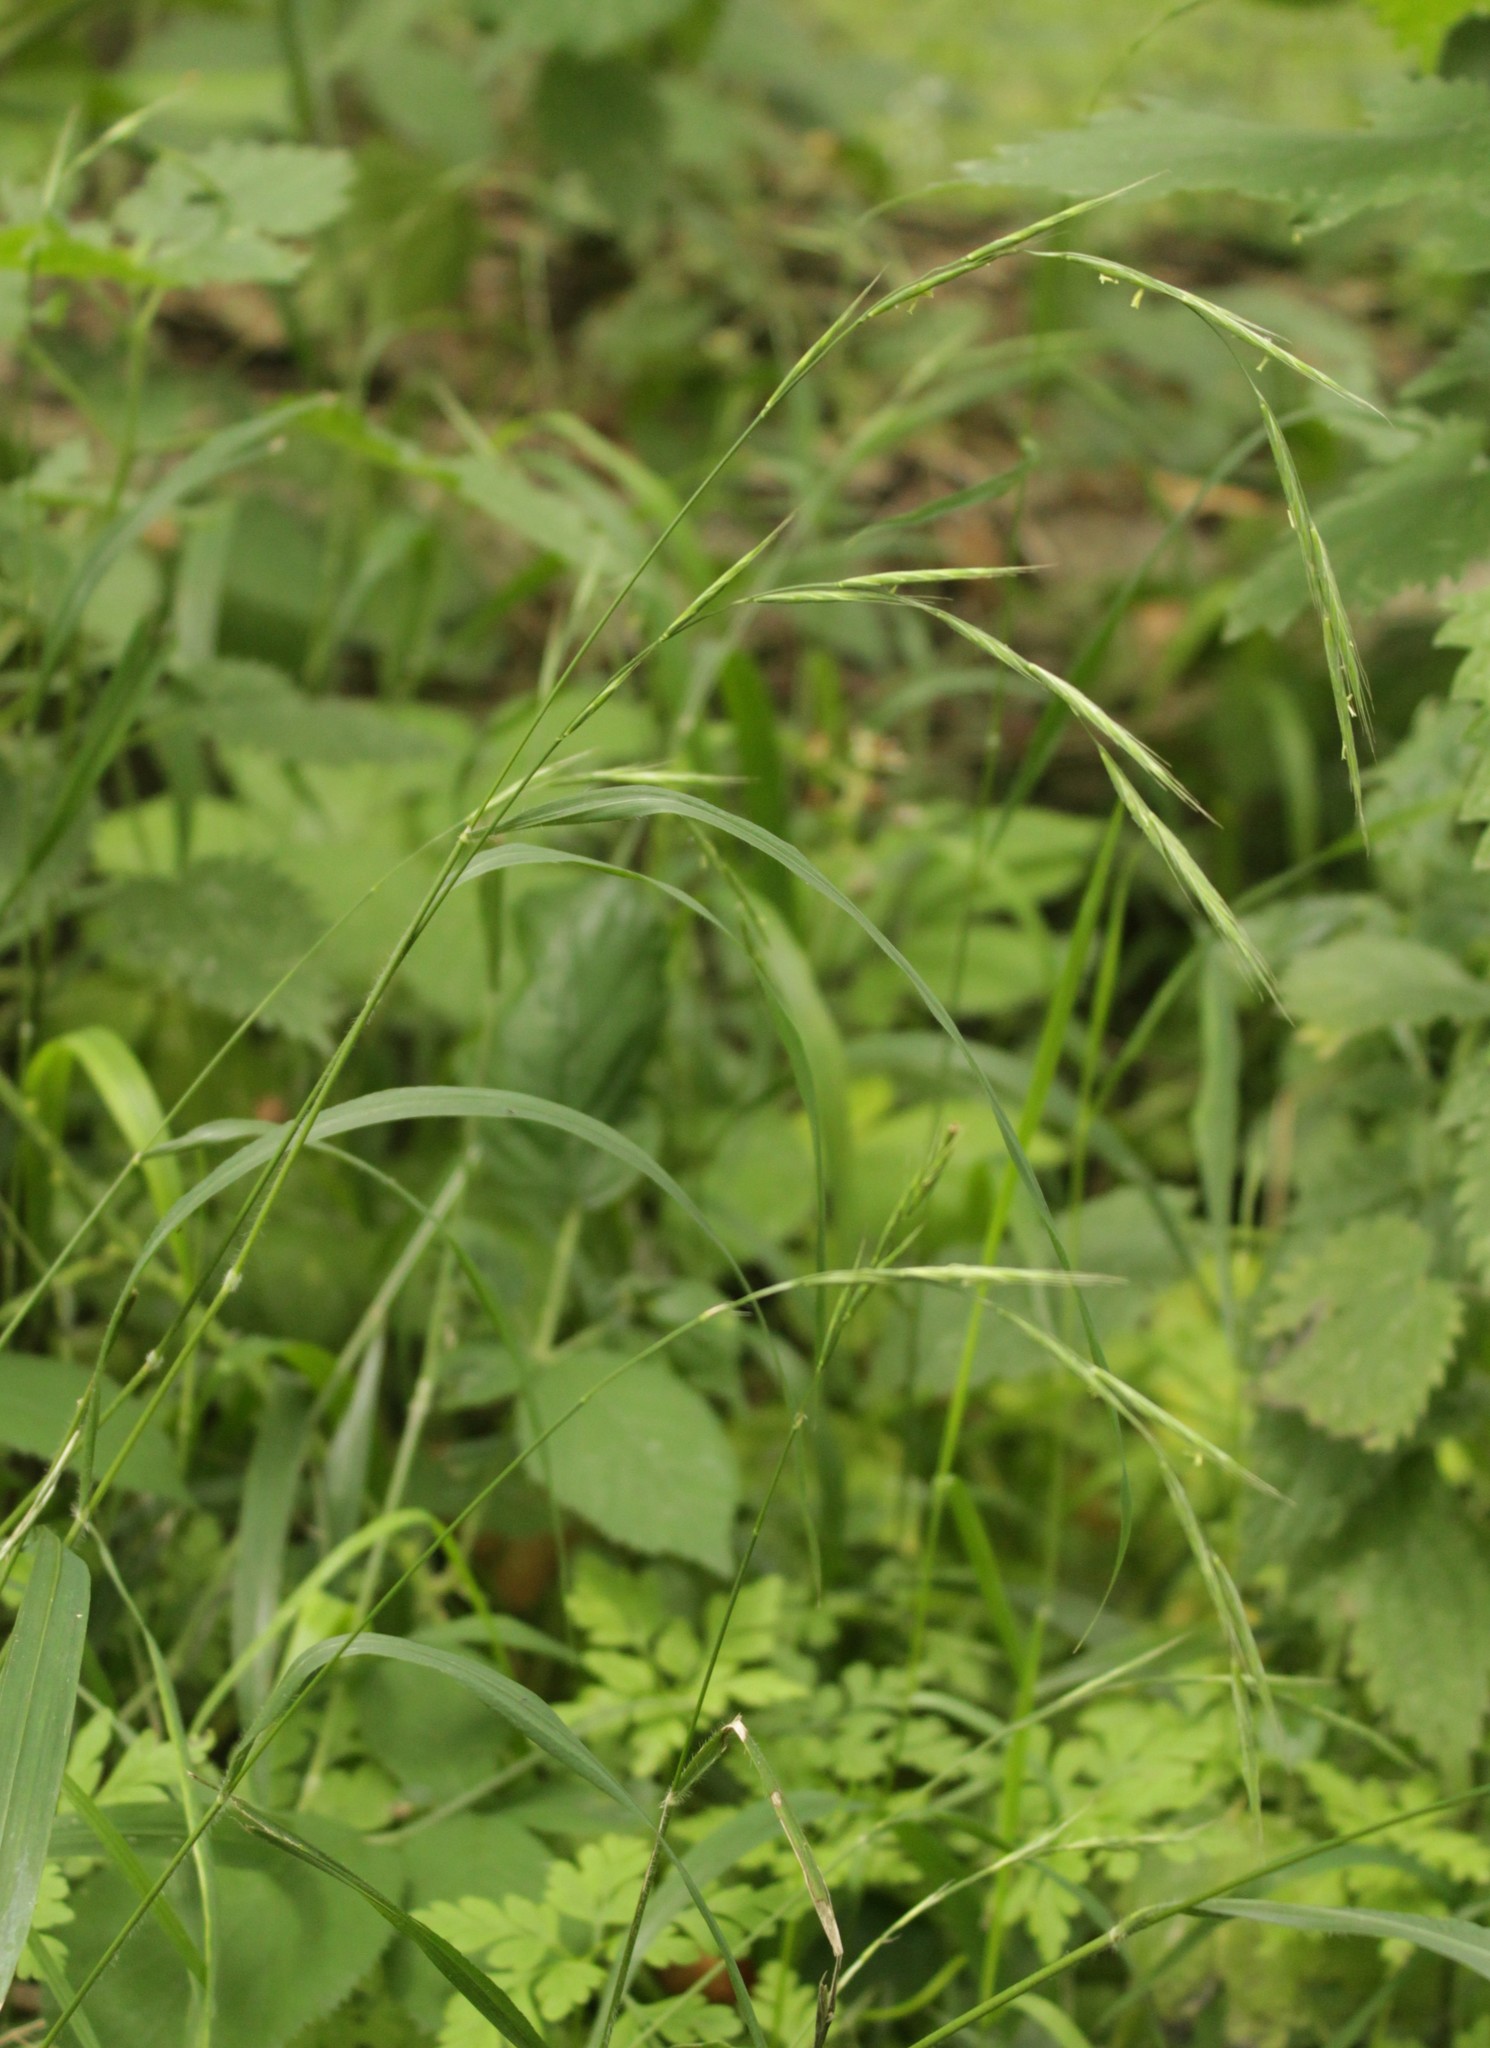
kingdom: Plantae
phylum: Tracheophyta
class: Liliopsida
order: Poales
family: Poaceae
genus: Brachypodium
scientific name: Brachypodium sylvaticum
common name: False-brome
